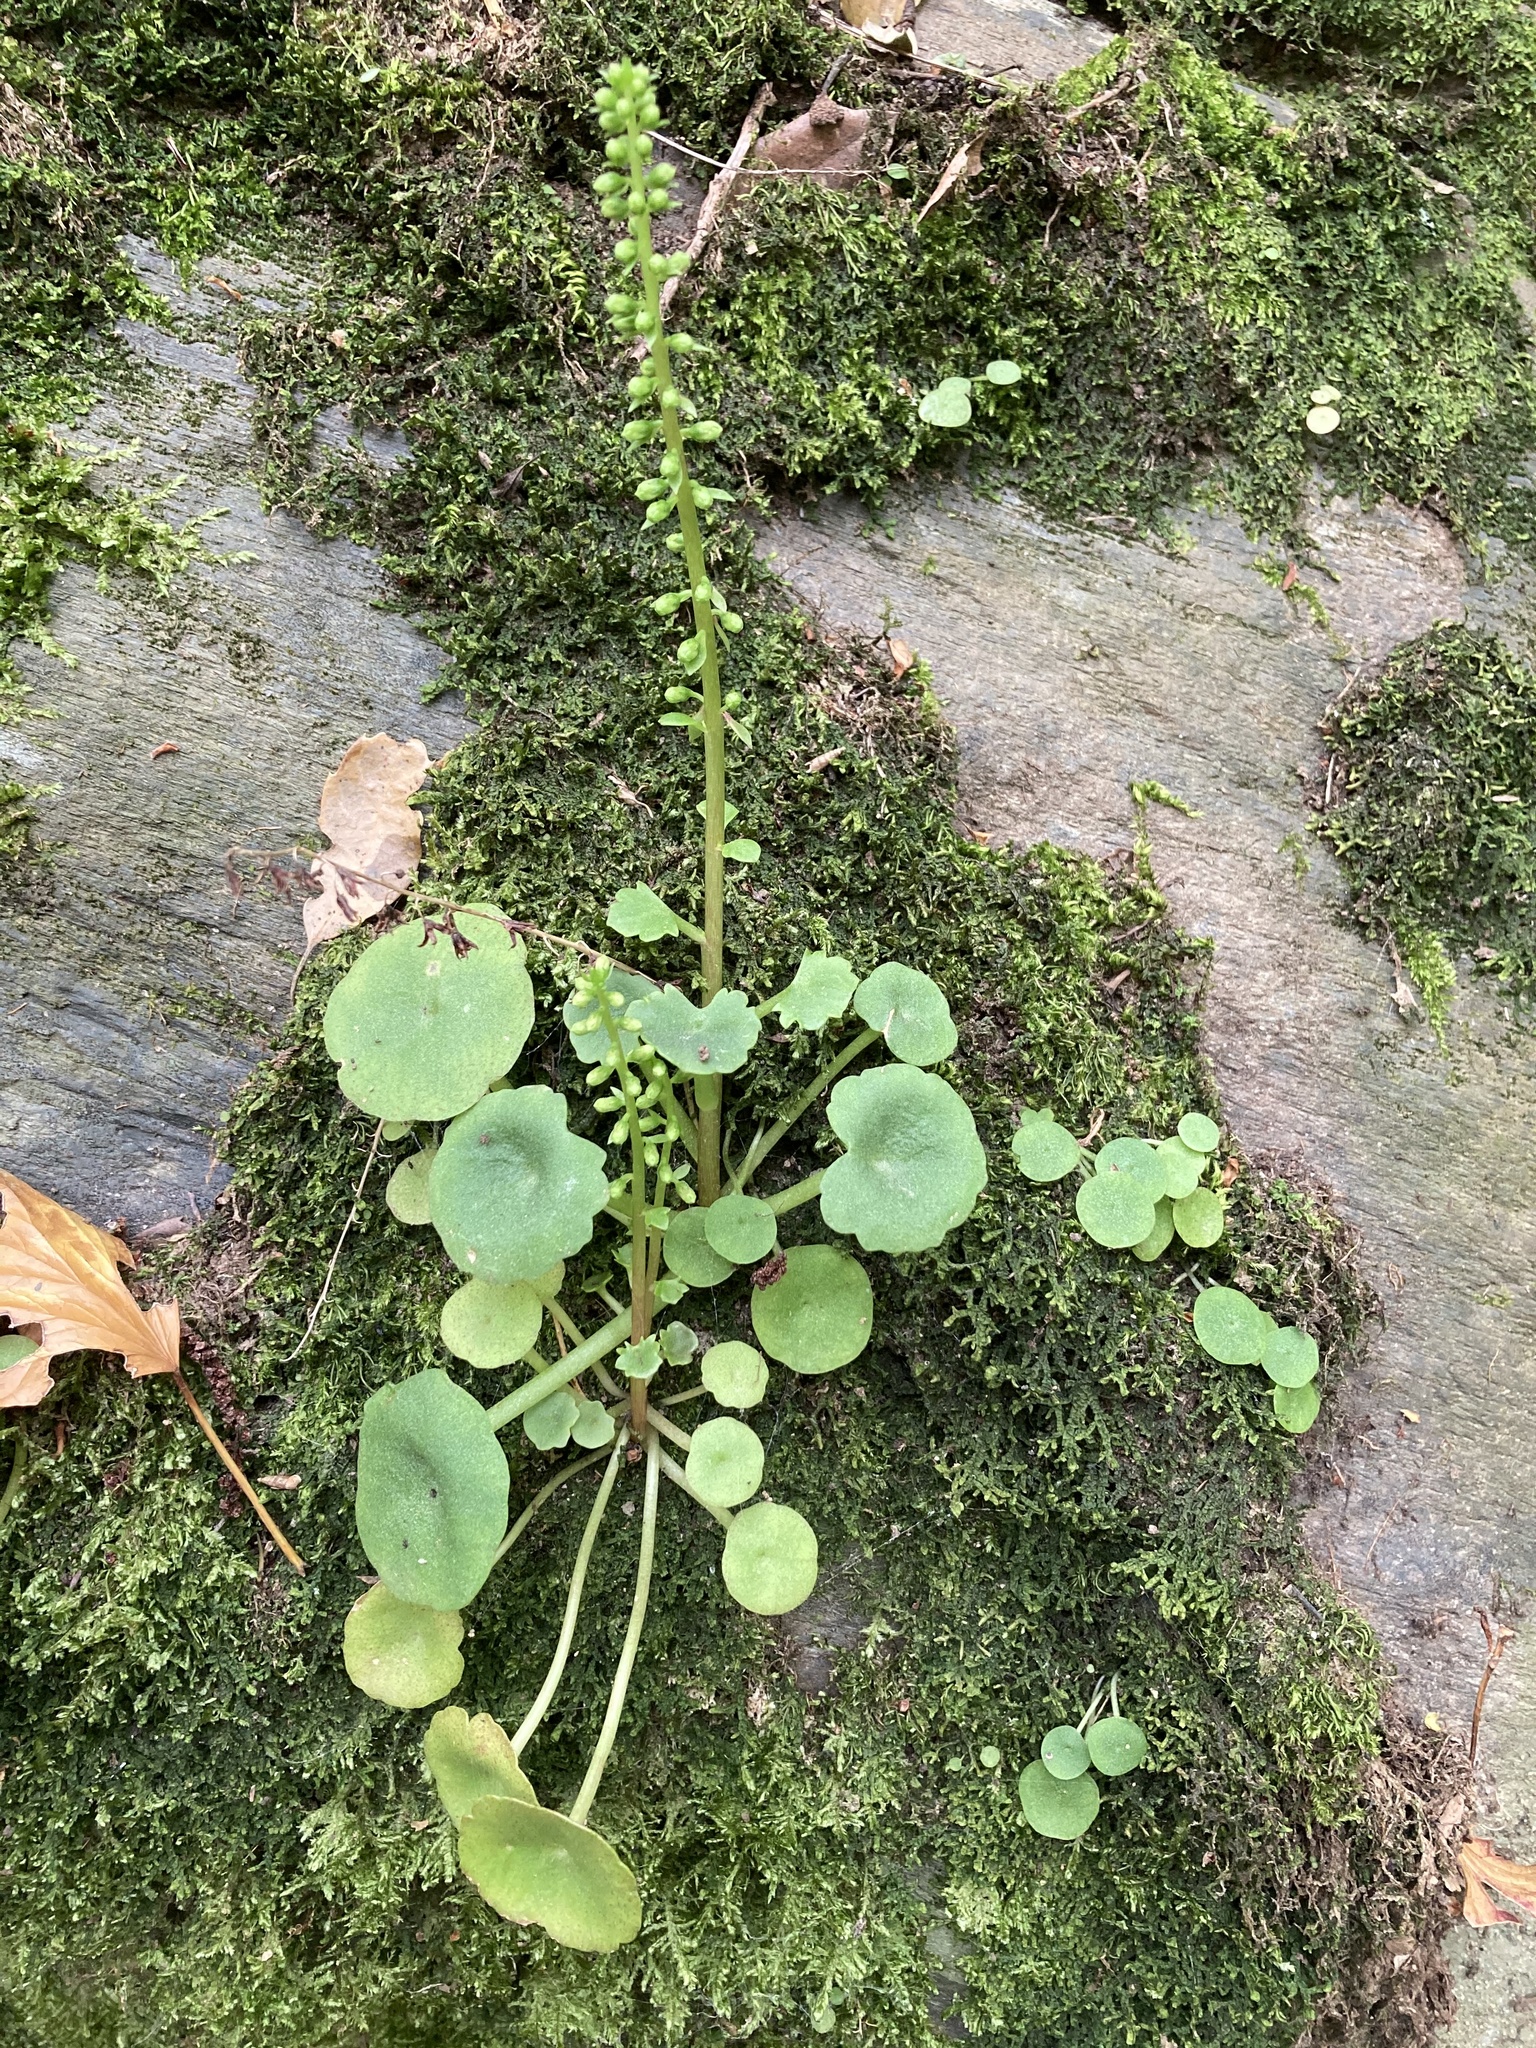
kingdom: Plantae
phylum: Tracheophyta
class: Magnoliopsida
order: Saxifragales
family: Crassulaceae
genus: Umbilicus
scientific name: Umbilicus rupestris
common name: Navelwort
